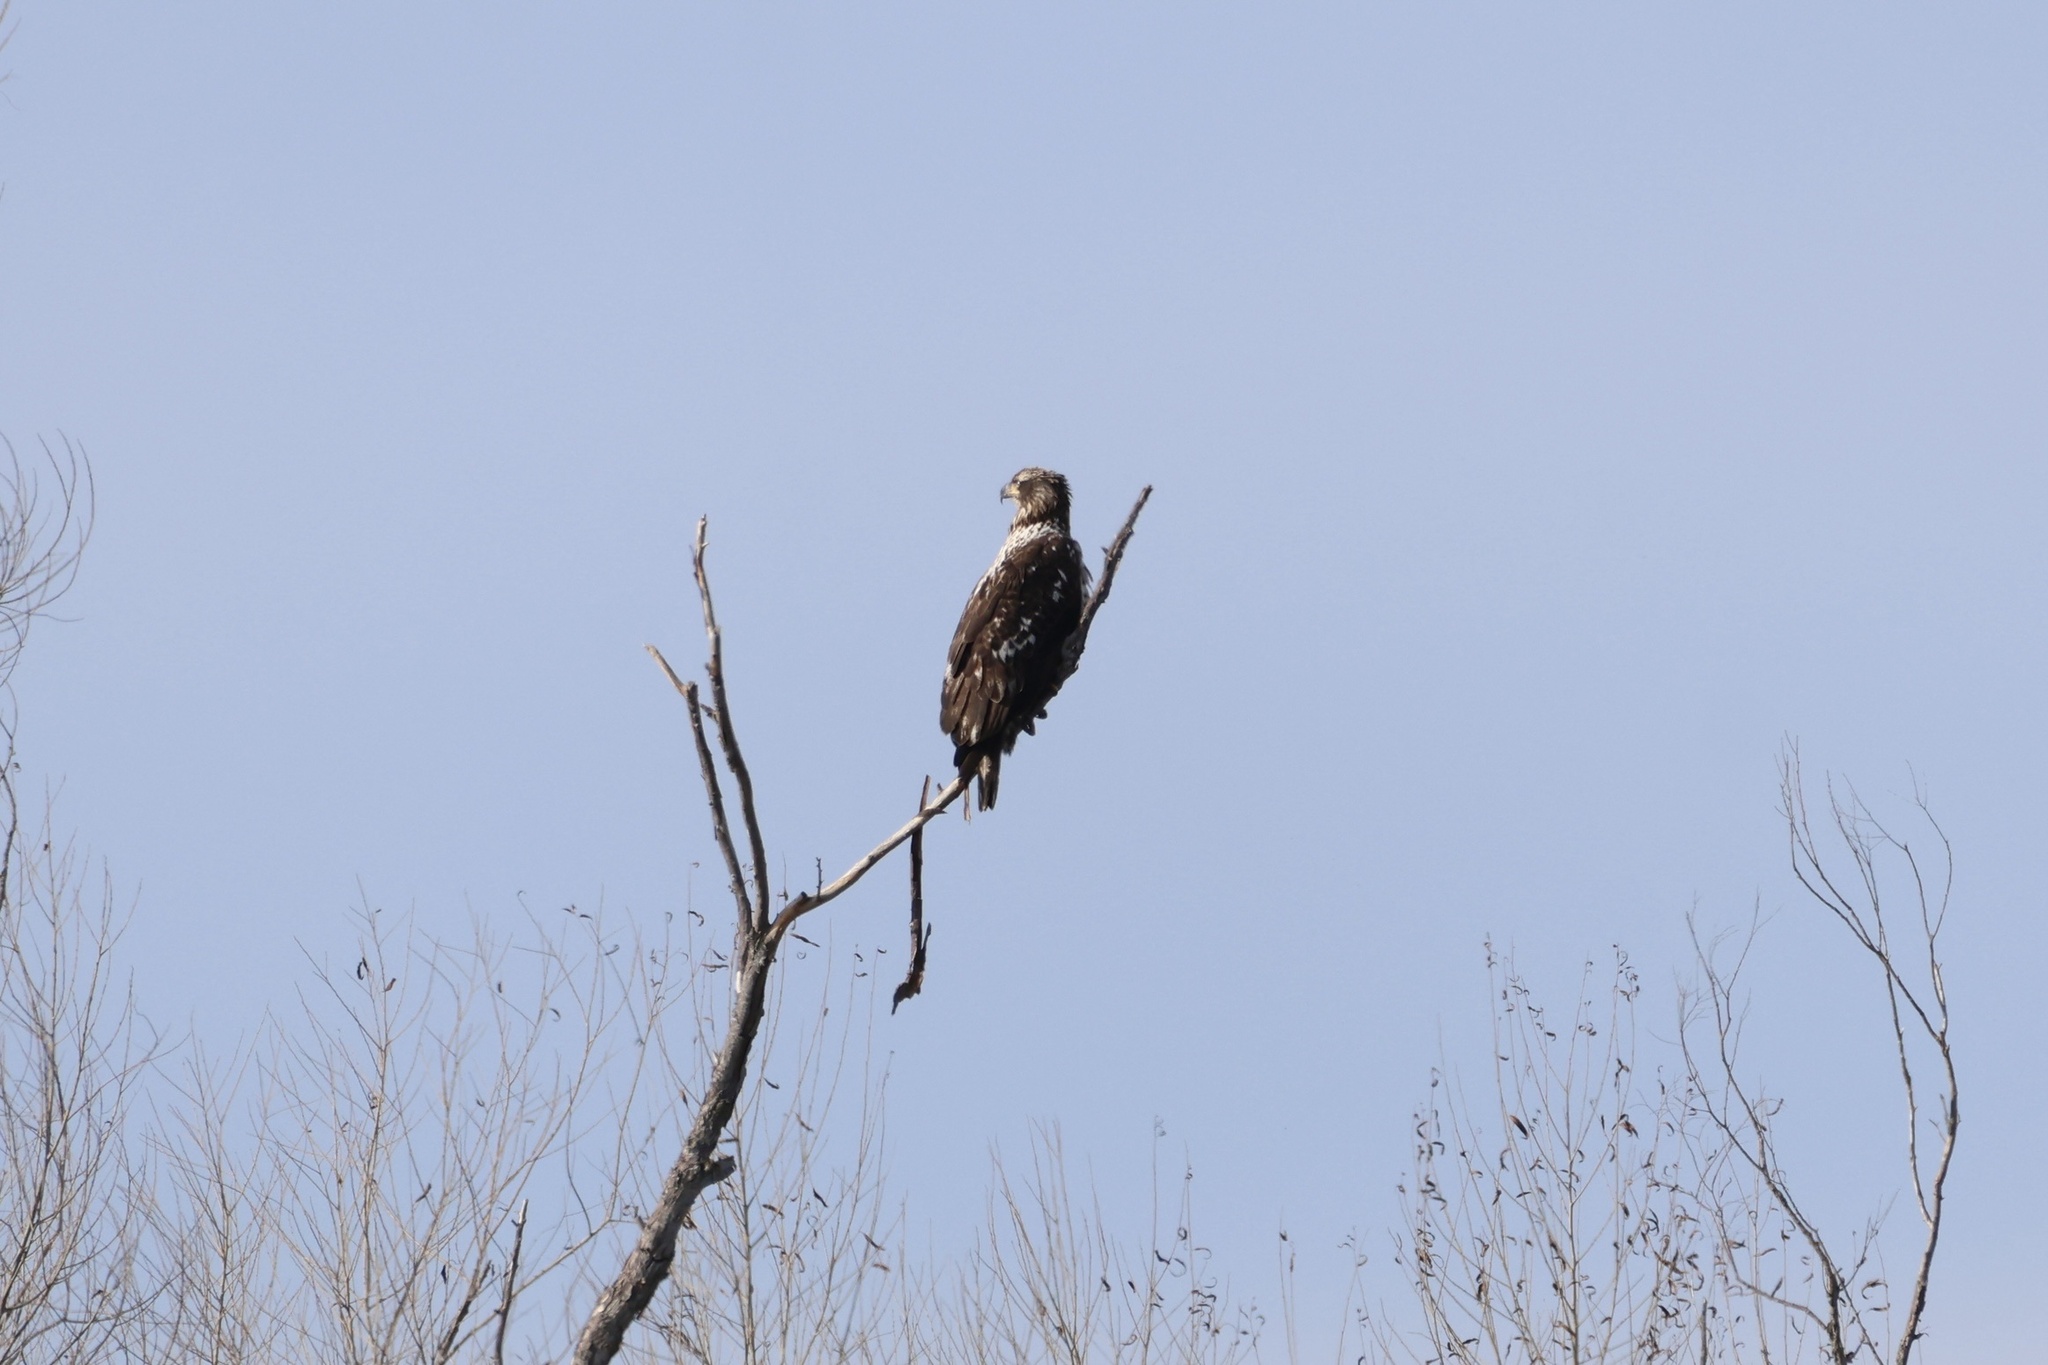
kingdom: Animalia
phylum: Chordata
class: Aves
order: Accipitriformes
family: Accipitridae
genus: Haliaeetus
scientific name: Haliaeetus leucocephalus
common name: Bald eagle
